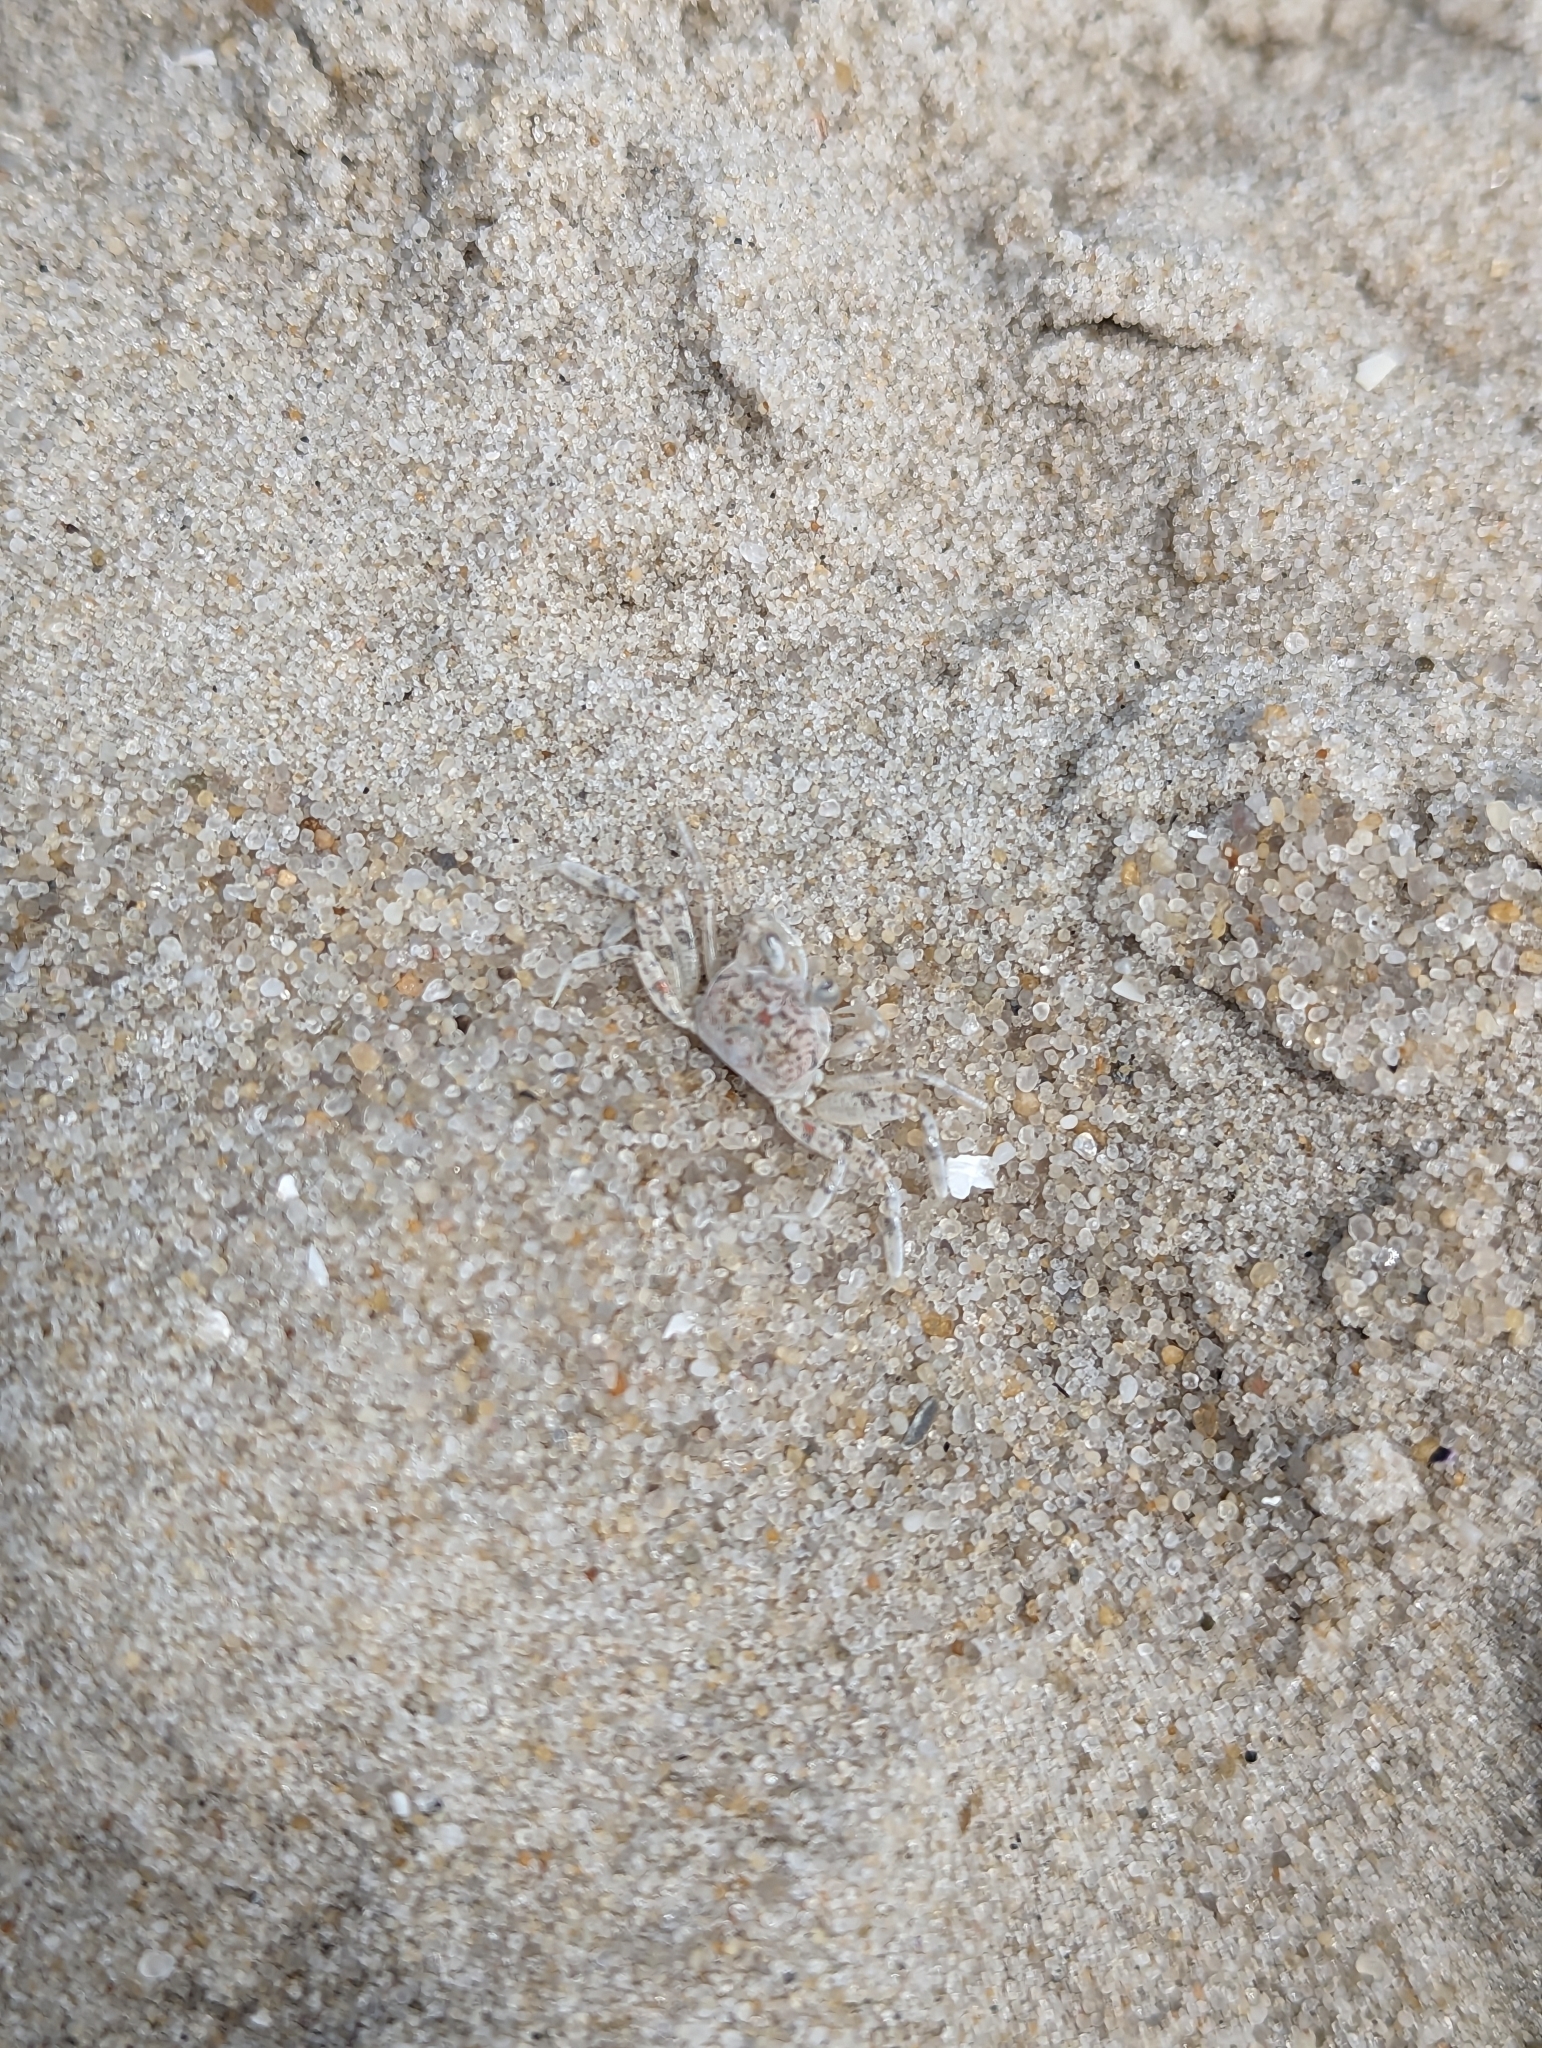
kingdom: Animalia
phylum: Arthropoda
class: Malacostraca
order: Decapoda
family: Ocypodidae
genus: Ocypode
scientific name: Ocypode quadrata
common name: Ghost crab
